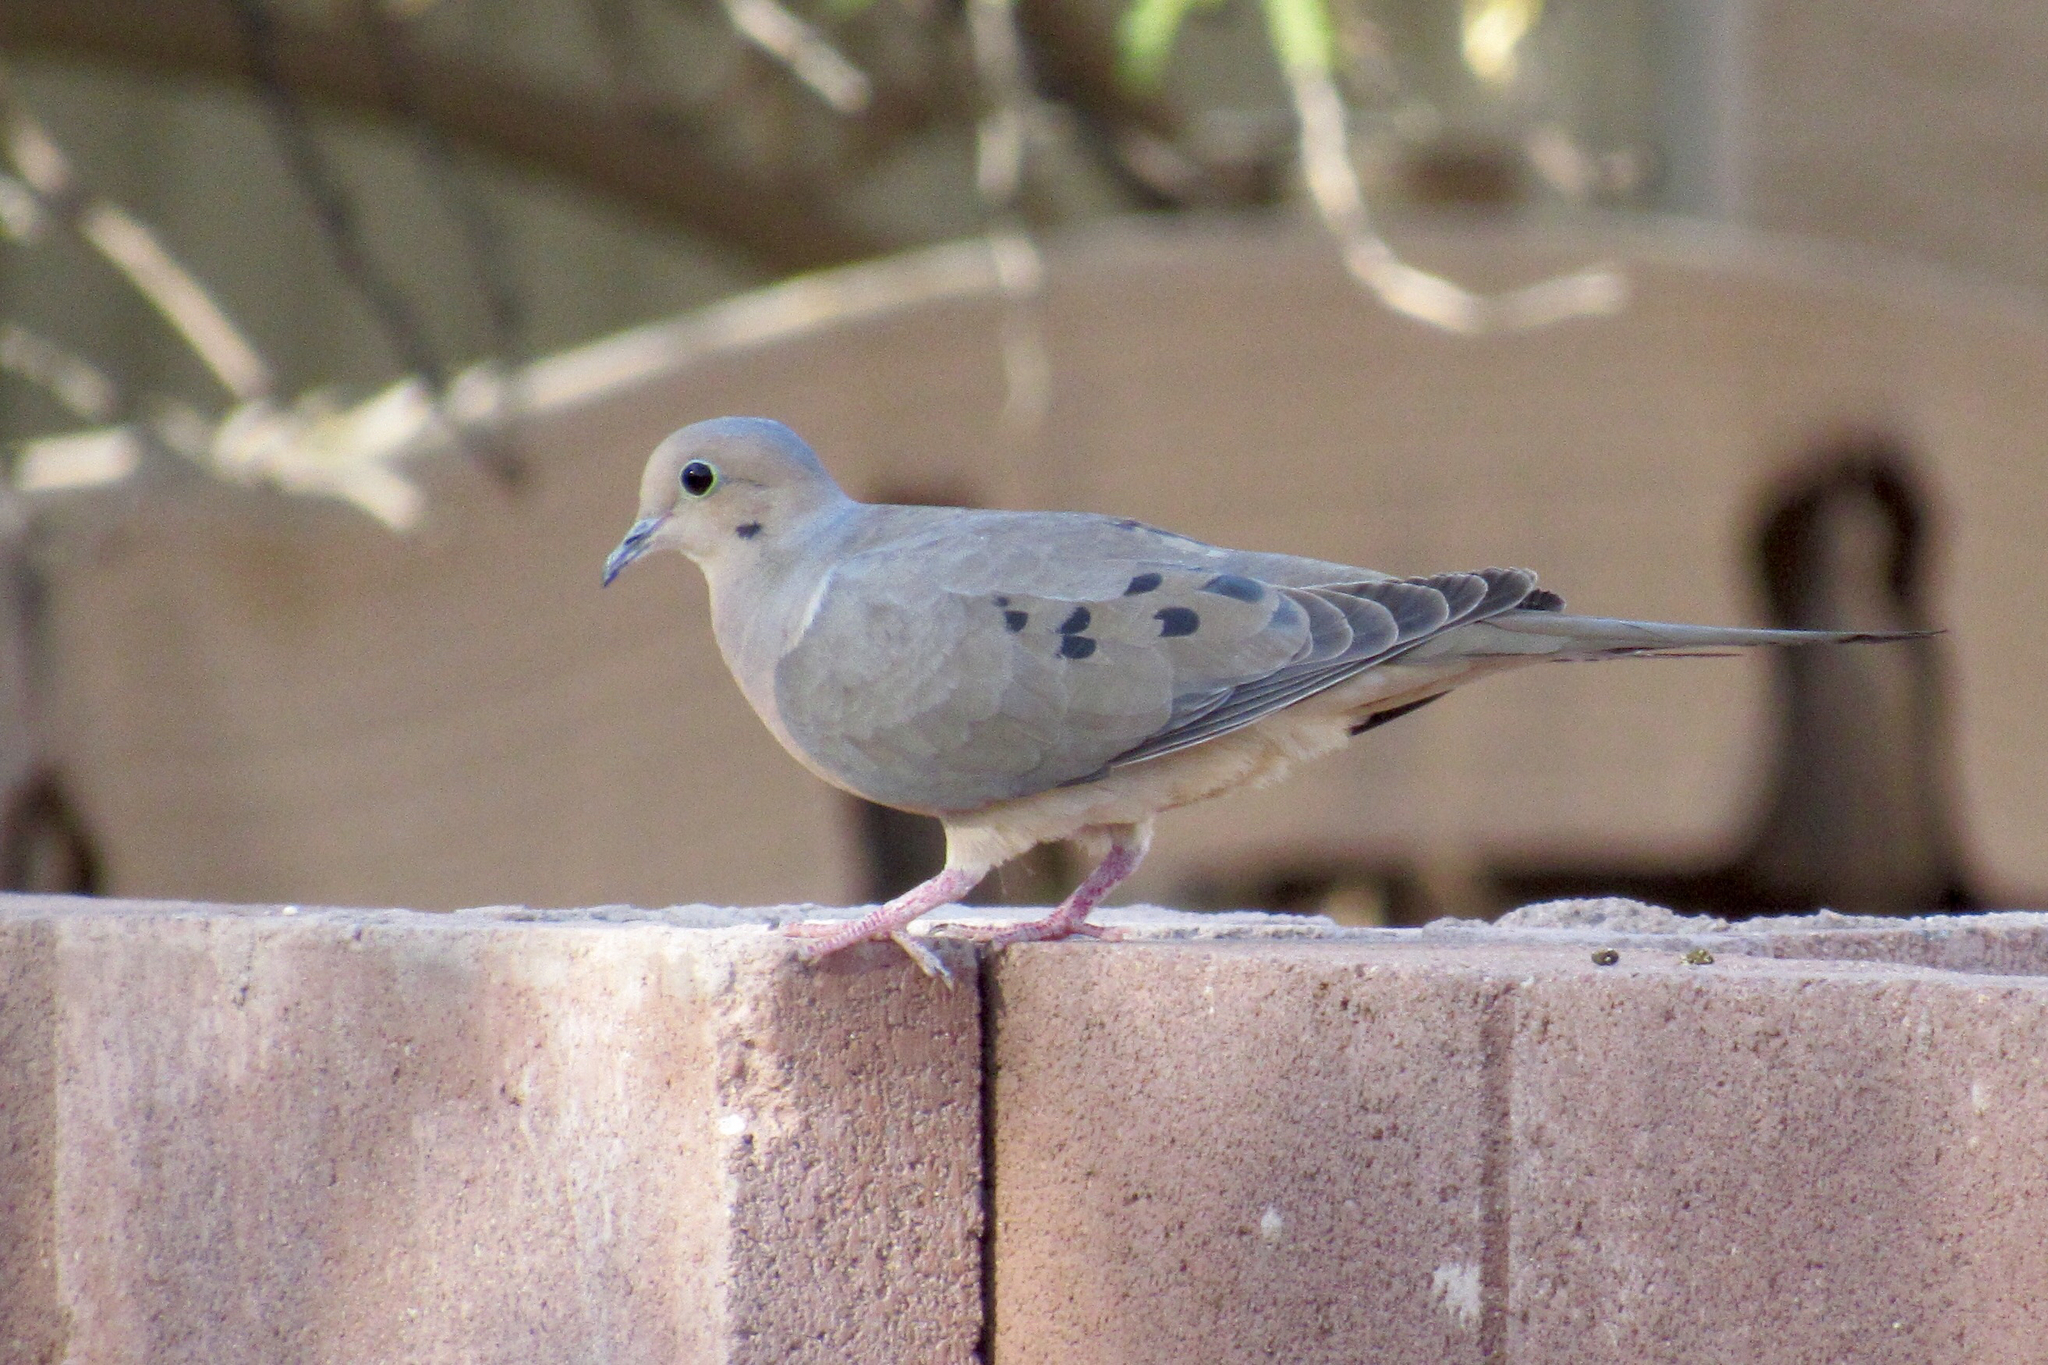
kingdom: Animalia
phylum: Chordata
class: Aves
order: Columbiformes
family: Columbidae
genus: Zenaida
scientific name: Zenaida macroura
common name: Mourning dove
